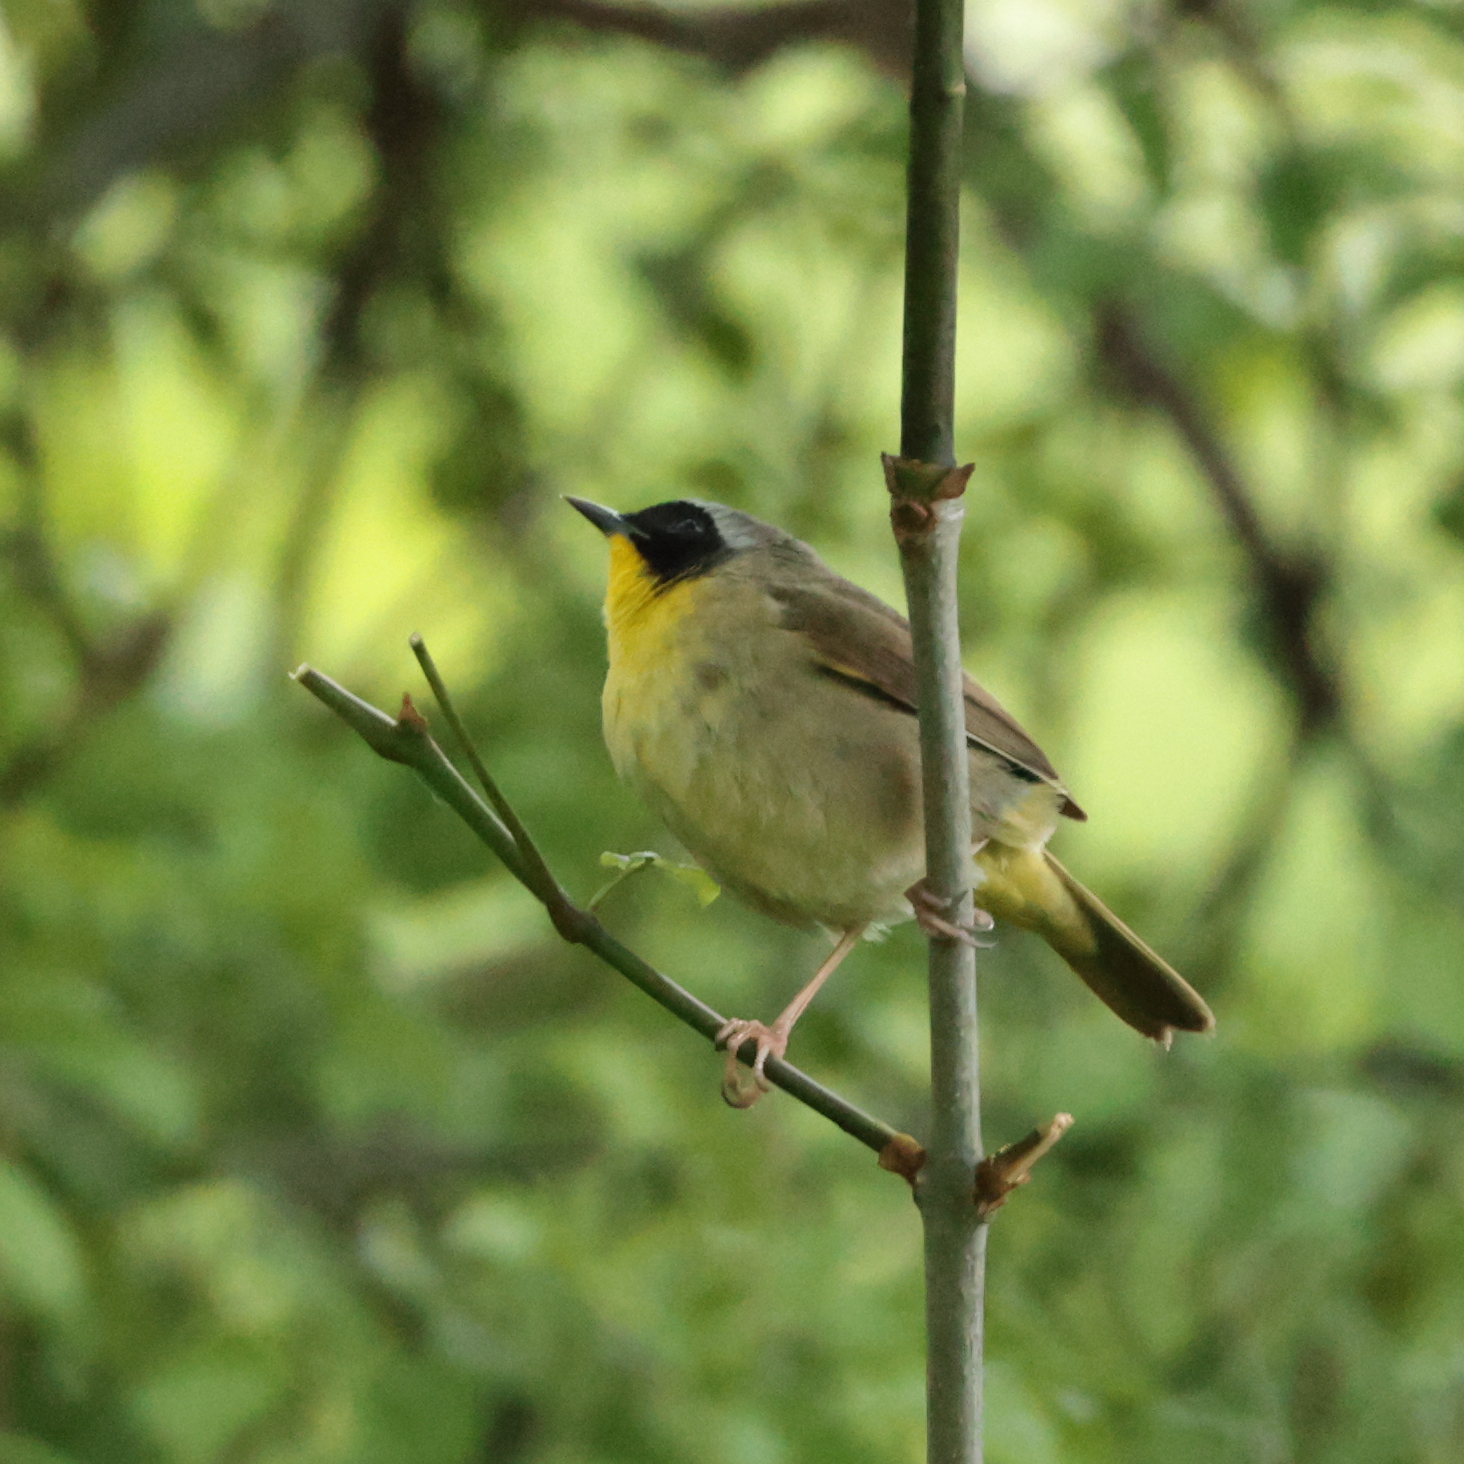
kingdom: Animalia
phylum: Chordata
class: Aves
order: Passeriformes
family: Parulidae
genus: Geothlypis
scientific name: Geothlypis trichas
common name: Common yellowthroat
